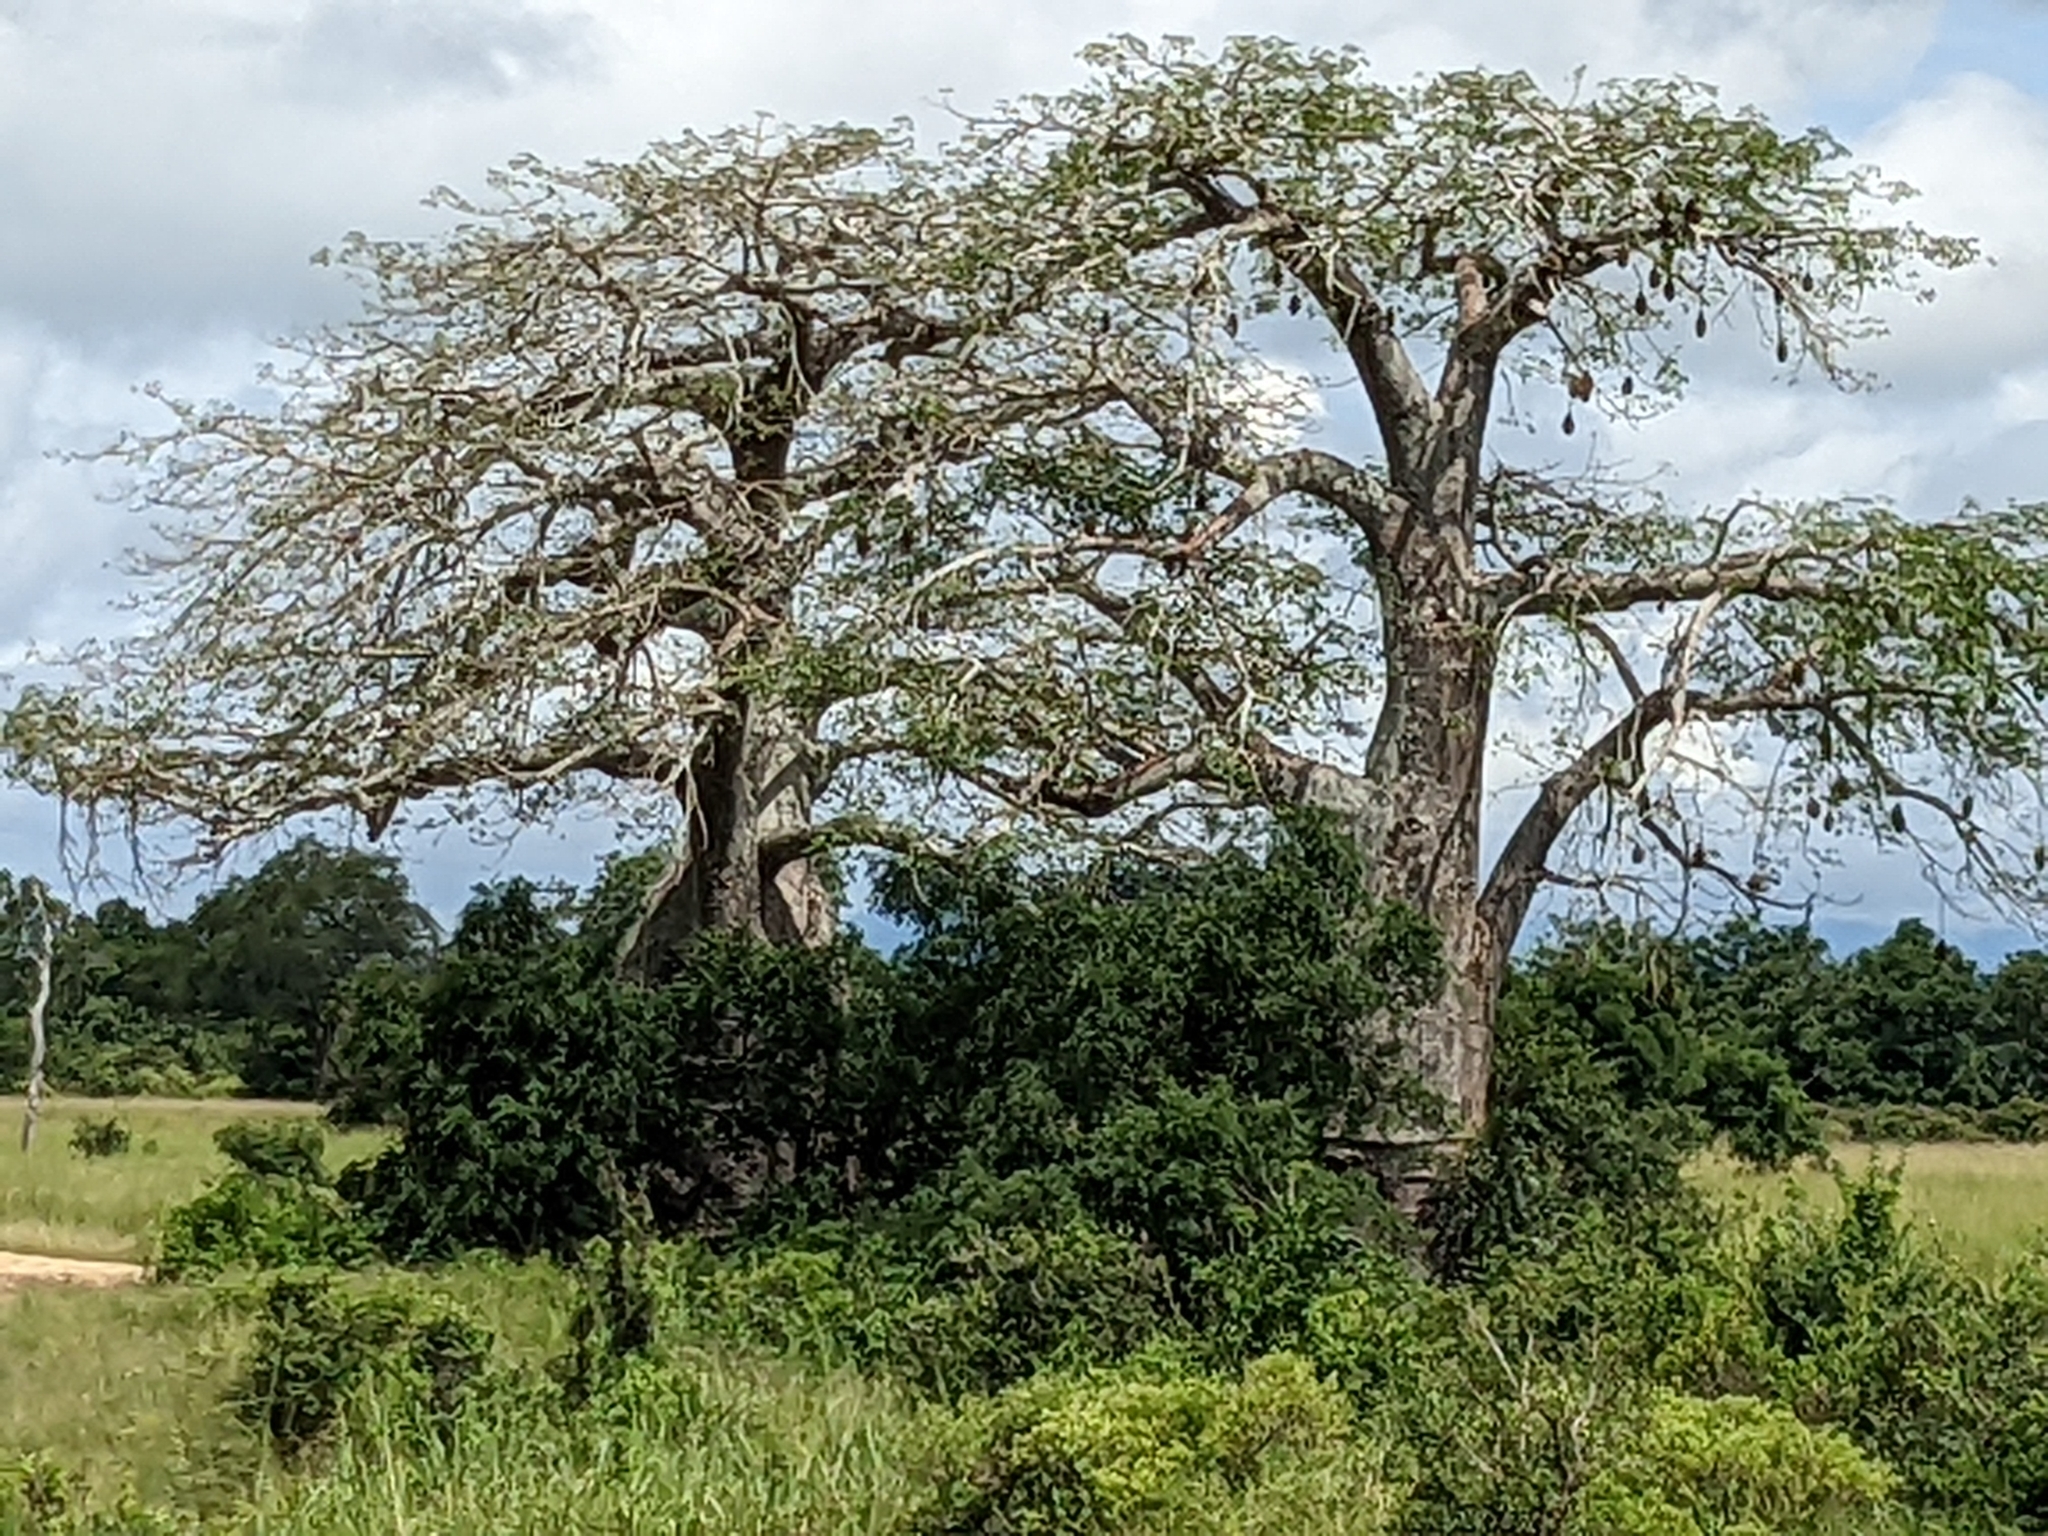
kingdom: Plantae
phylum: Tracheophyta
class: Magnoliopsida
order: Malvales
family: Malvaceae
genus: Adansonia
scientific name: Adansonia digitata
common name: Dead-rat-tree
